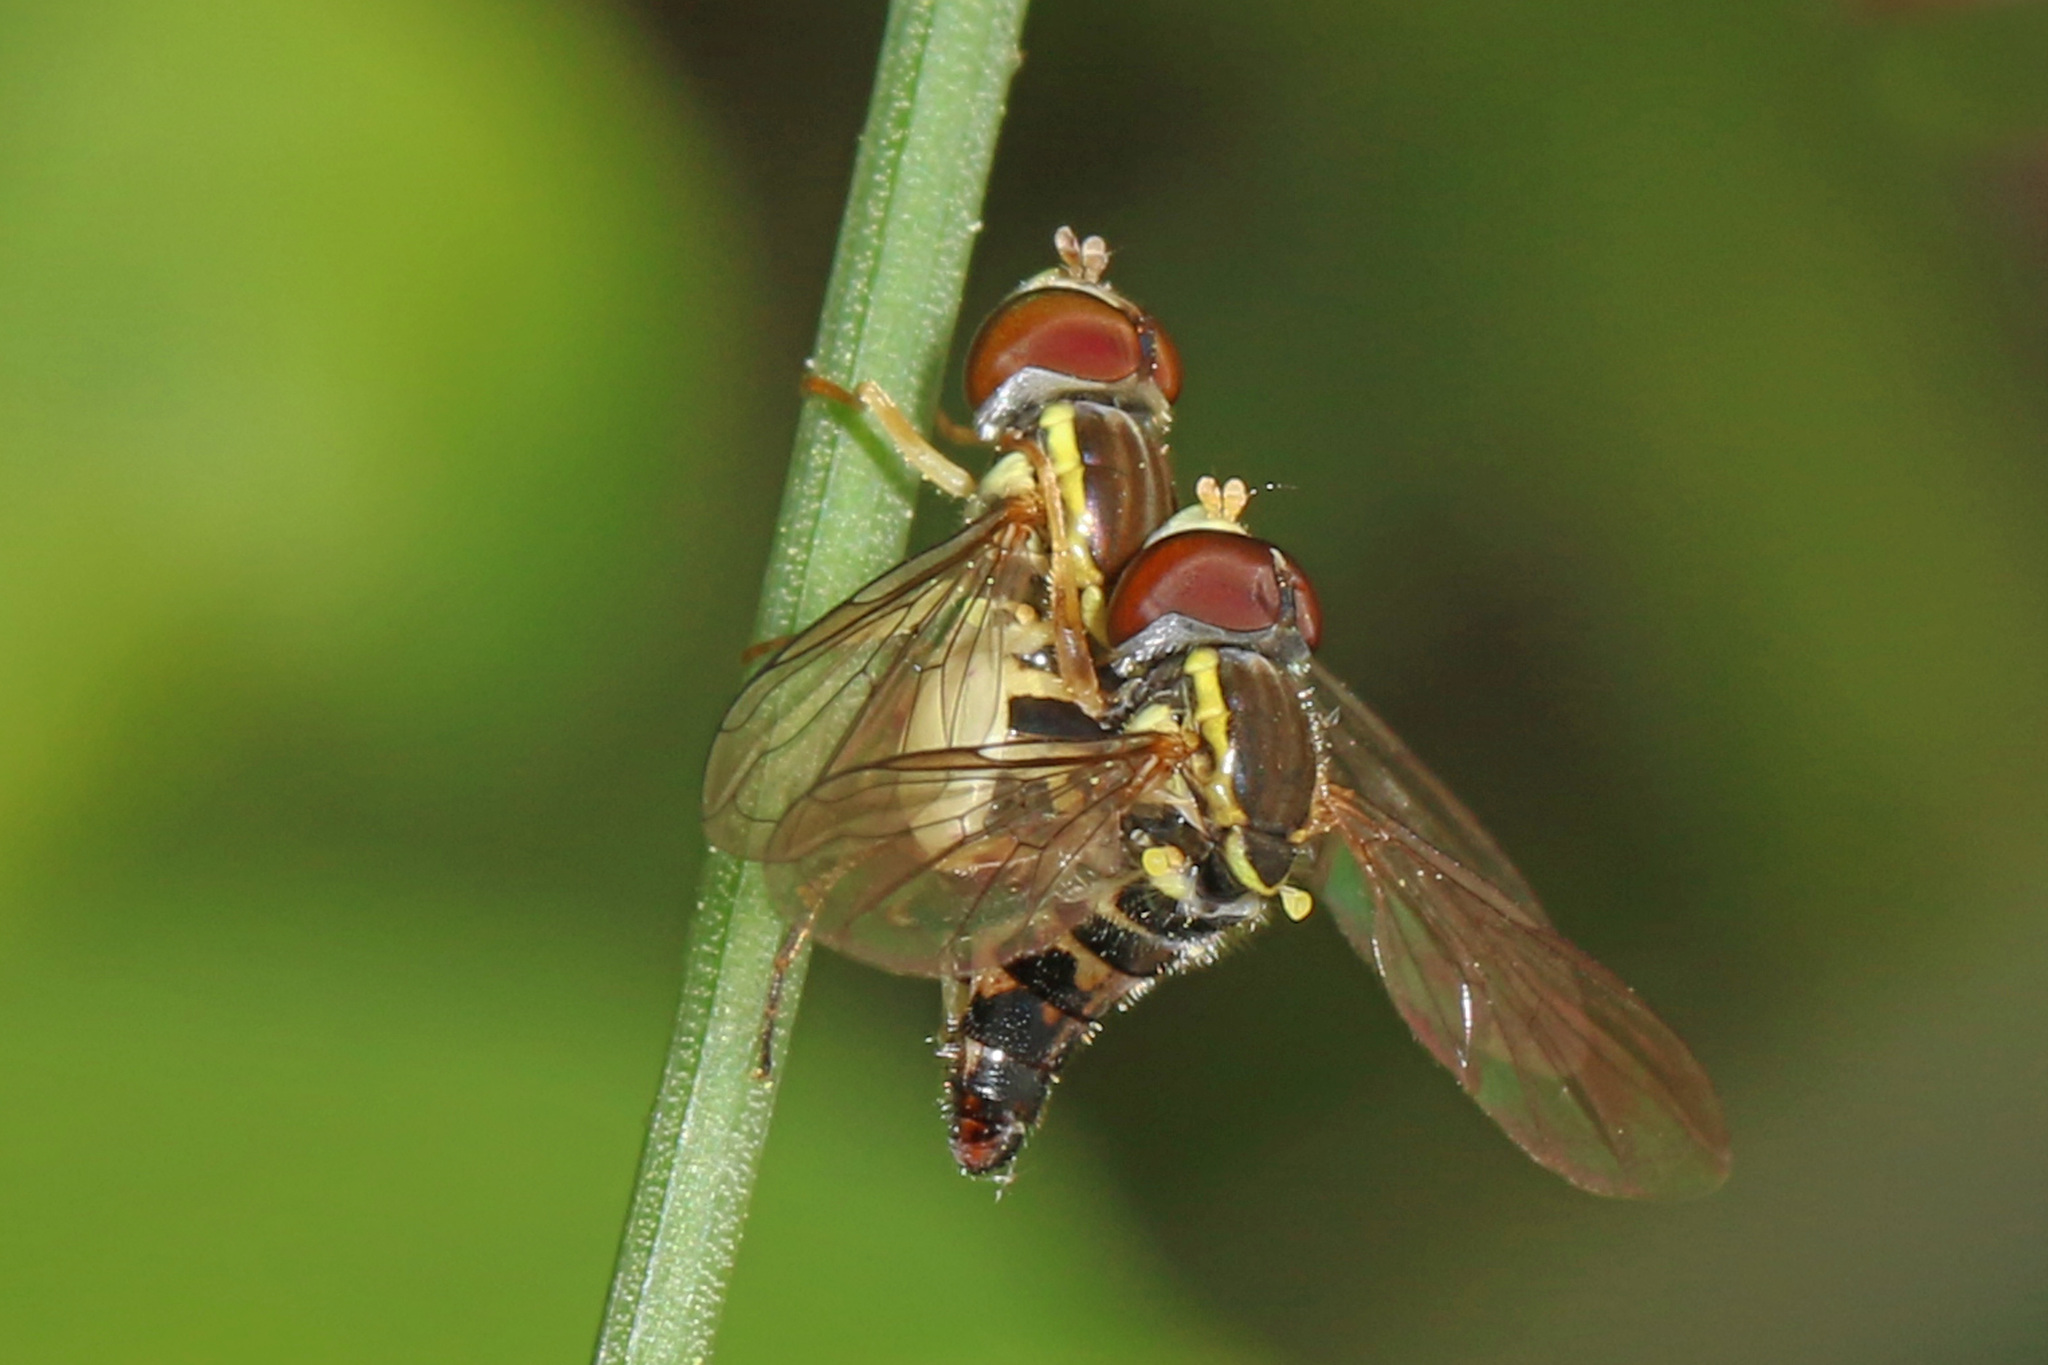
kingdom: Animalia
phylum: Arthropoda
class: Insecta
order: Diptera
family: Syrphidae
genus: Toxomerus
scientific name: Toxomerus geminatus
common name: Eastern calligrapher
